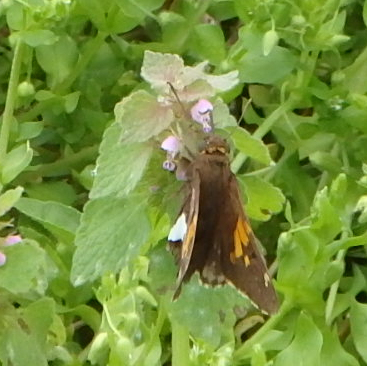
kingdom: Animalia
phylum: Arthropoda
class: Insecta
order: Lepidoptera
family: Hesperiidae
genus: Epargyreus
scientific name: Epargyreus clarus
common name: Silver-spotted skipper
